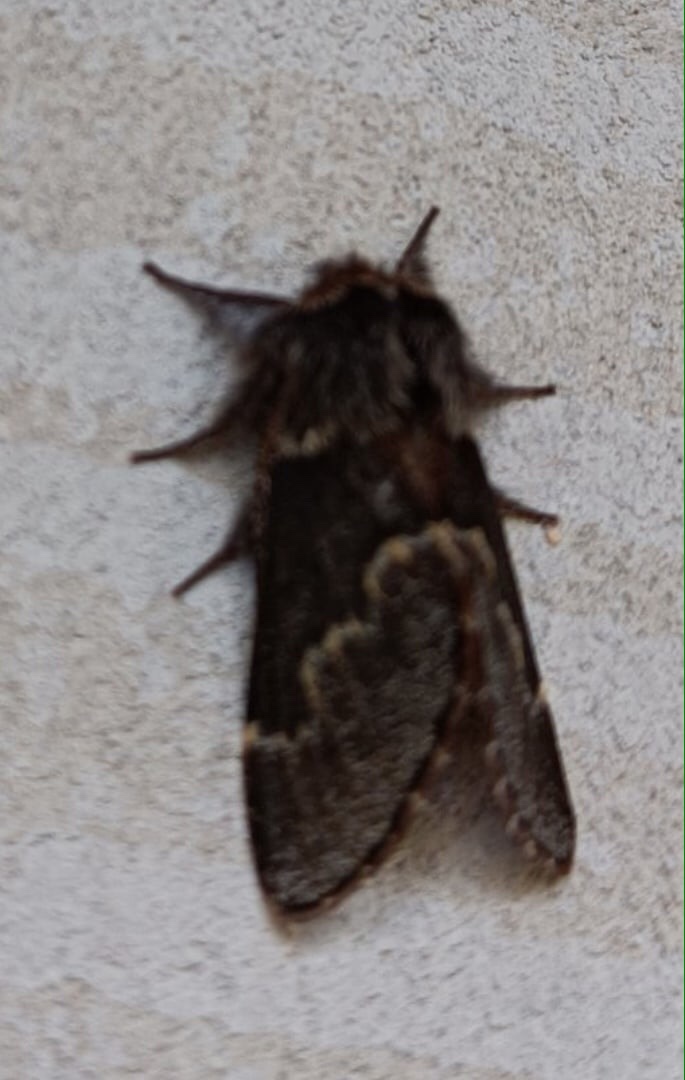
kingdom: Animalia
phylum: Arthropoda
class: Insecta
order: Lepidoptera
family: Lasiocampidae
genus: Poecilocampa
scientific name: Poecilocampa populi
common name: December moth
